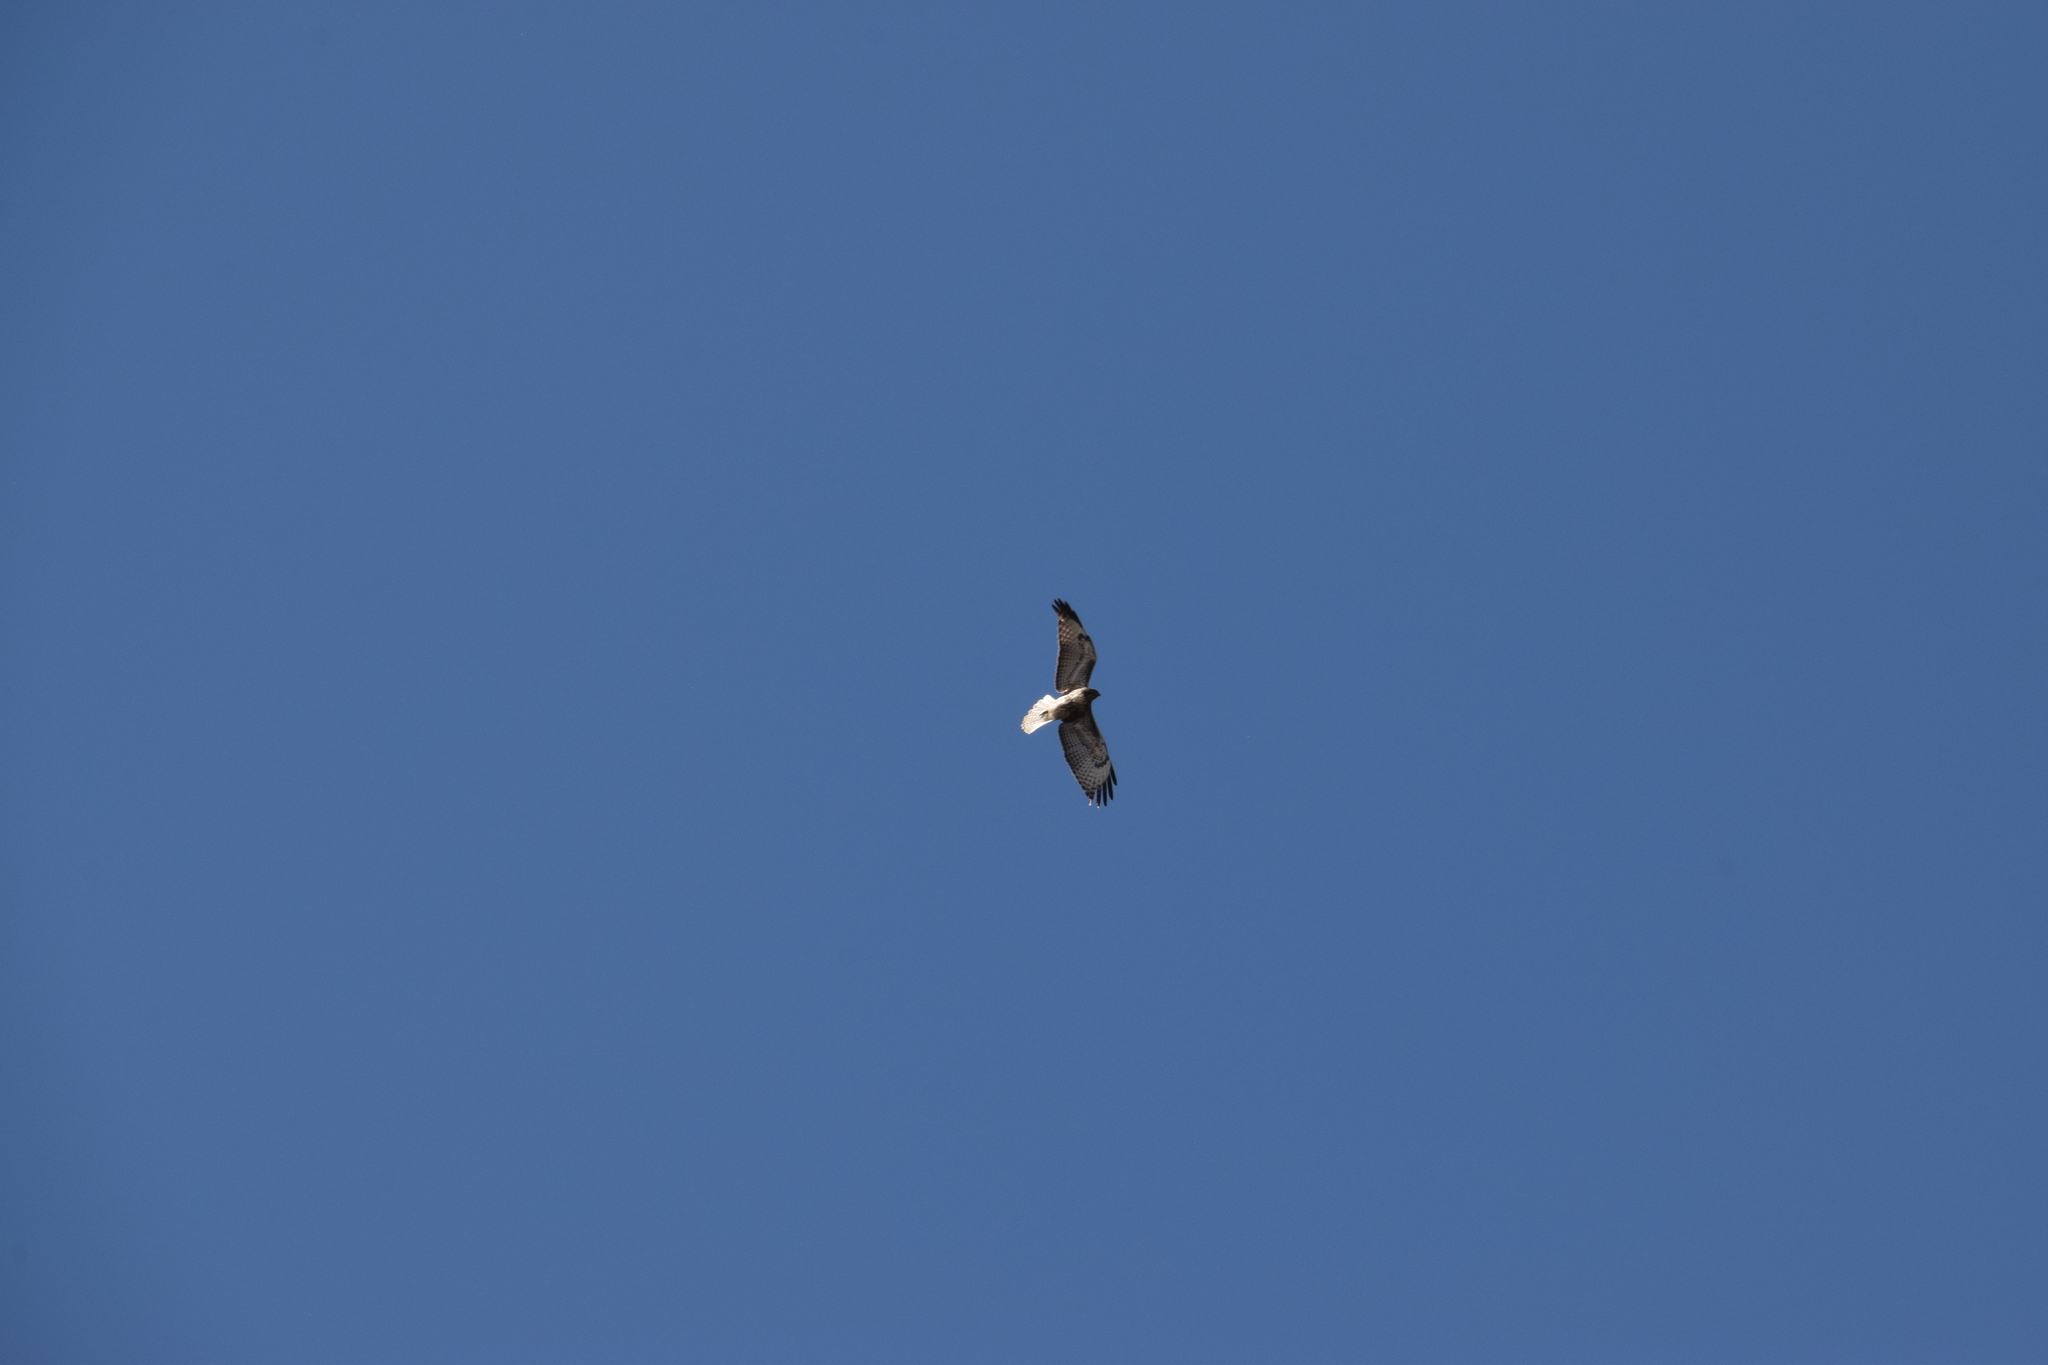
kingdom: Animalia
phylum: Chordata
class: Aves
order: Accipitriformes
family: Accipitridae
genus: Buteo
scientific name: Buteo jamaicensis
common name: Red-tailed hawk
